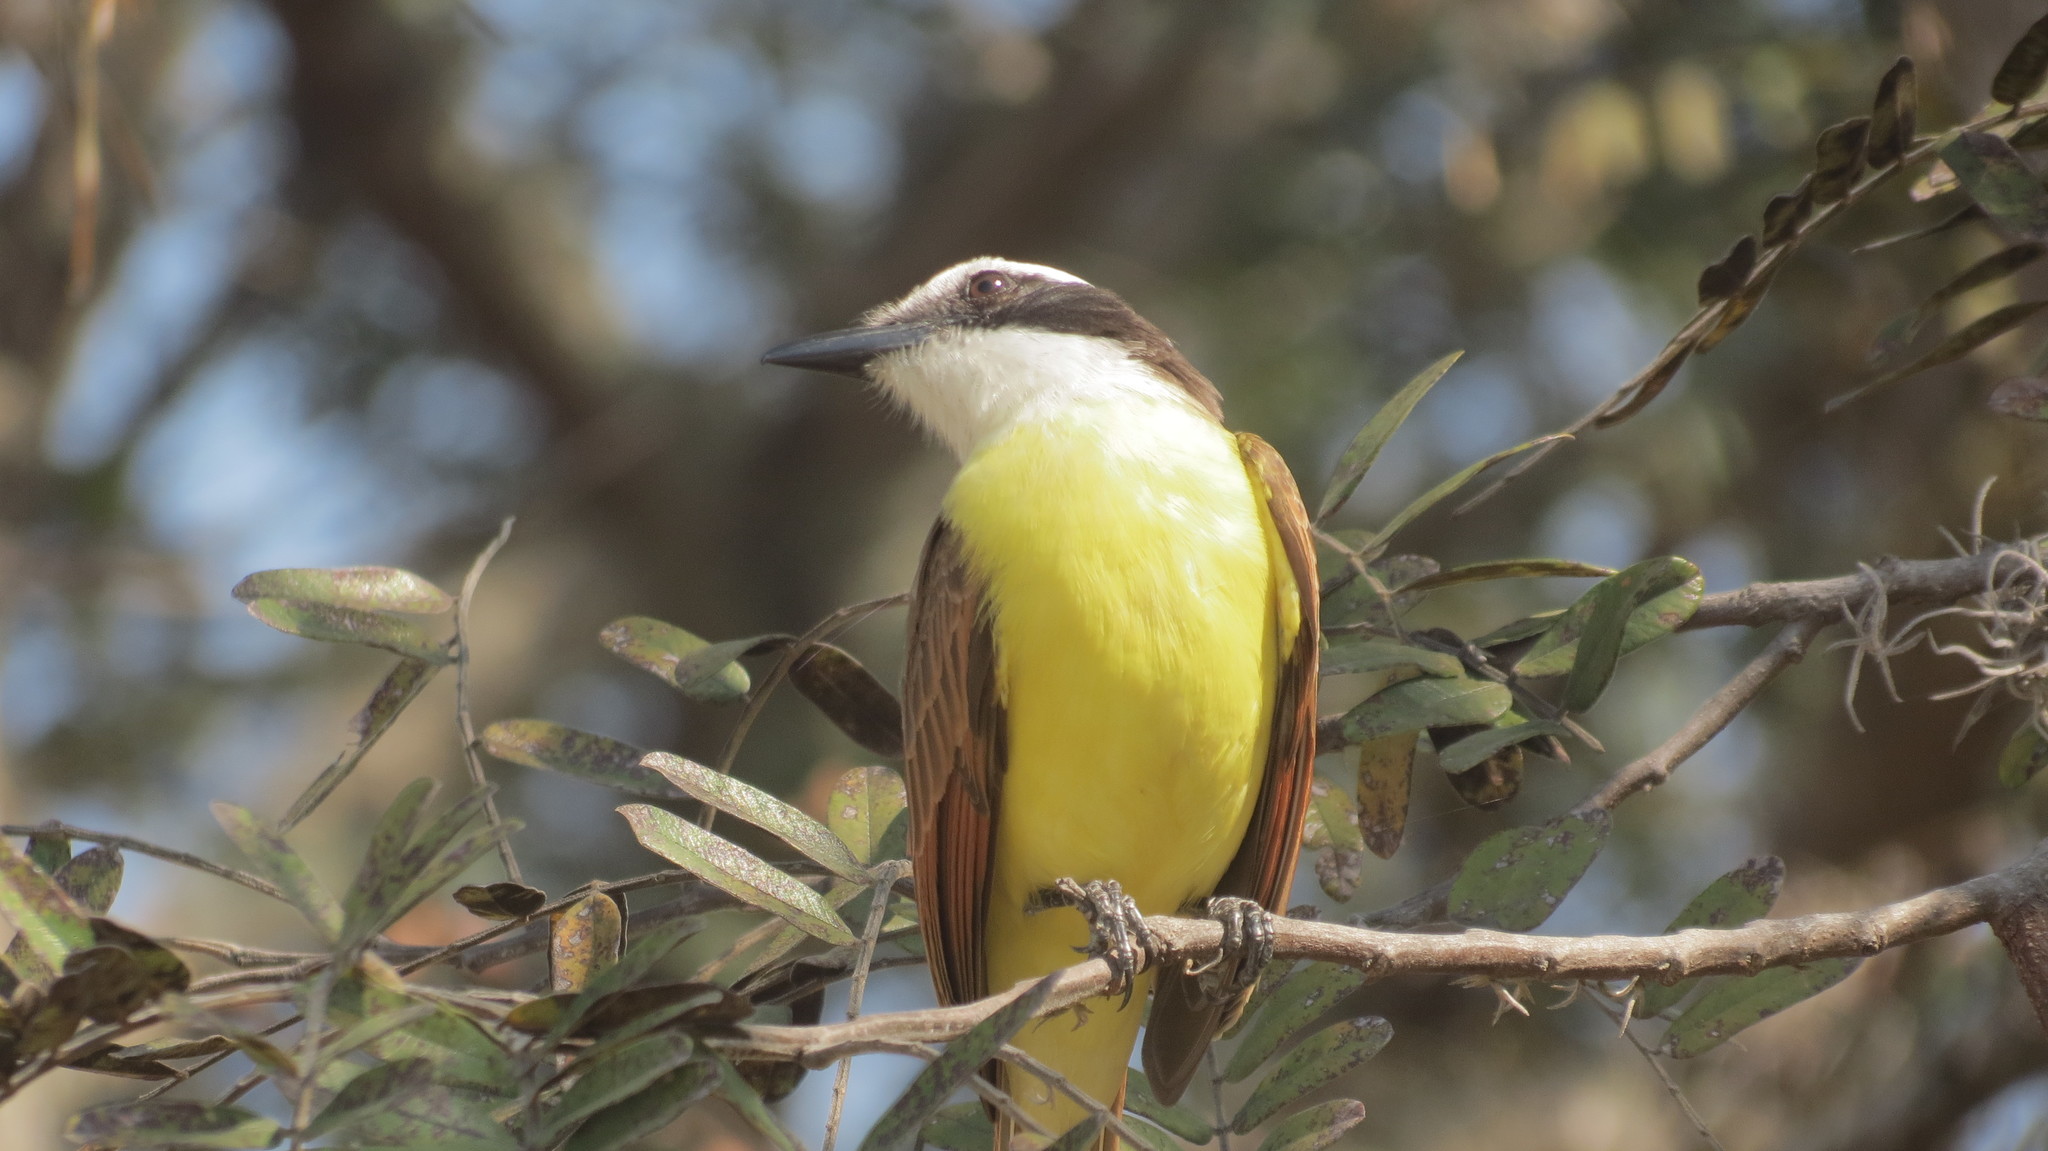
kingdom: Animalia
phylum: Chordata
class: Aves
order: Passeriformes
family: Tyrannidae
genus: Pitangus
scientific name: Pitangus sulphuratus
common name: Great kiskadee
